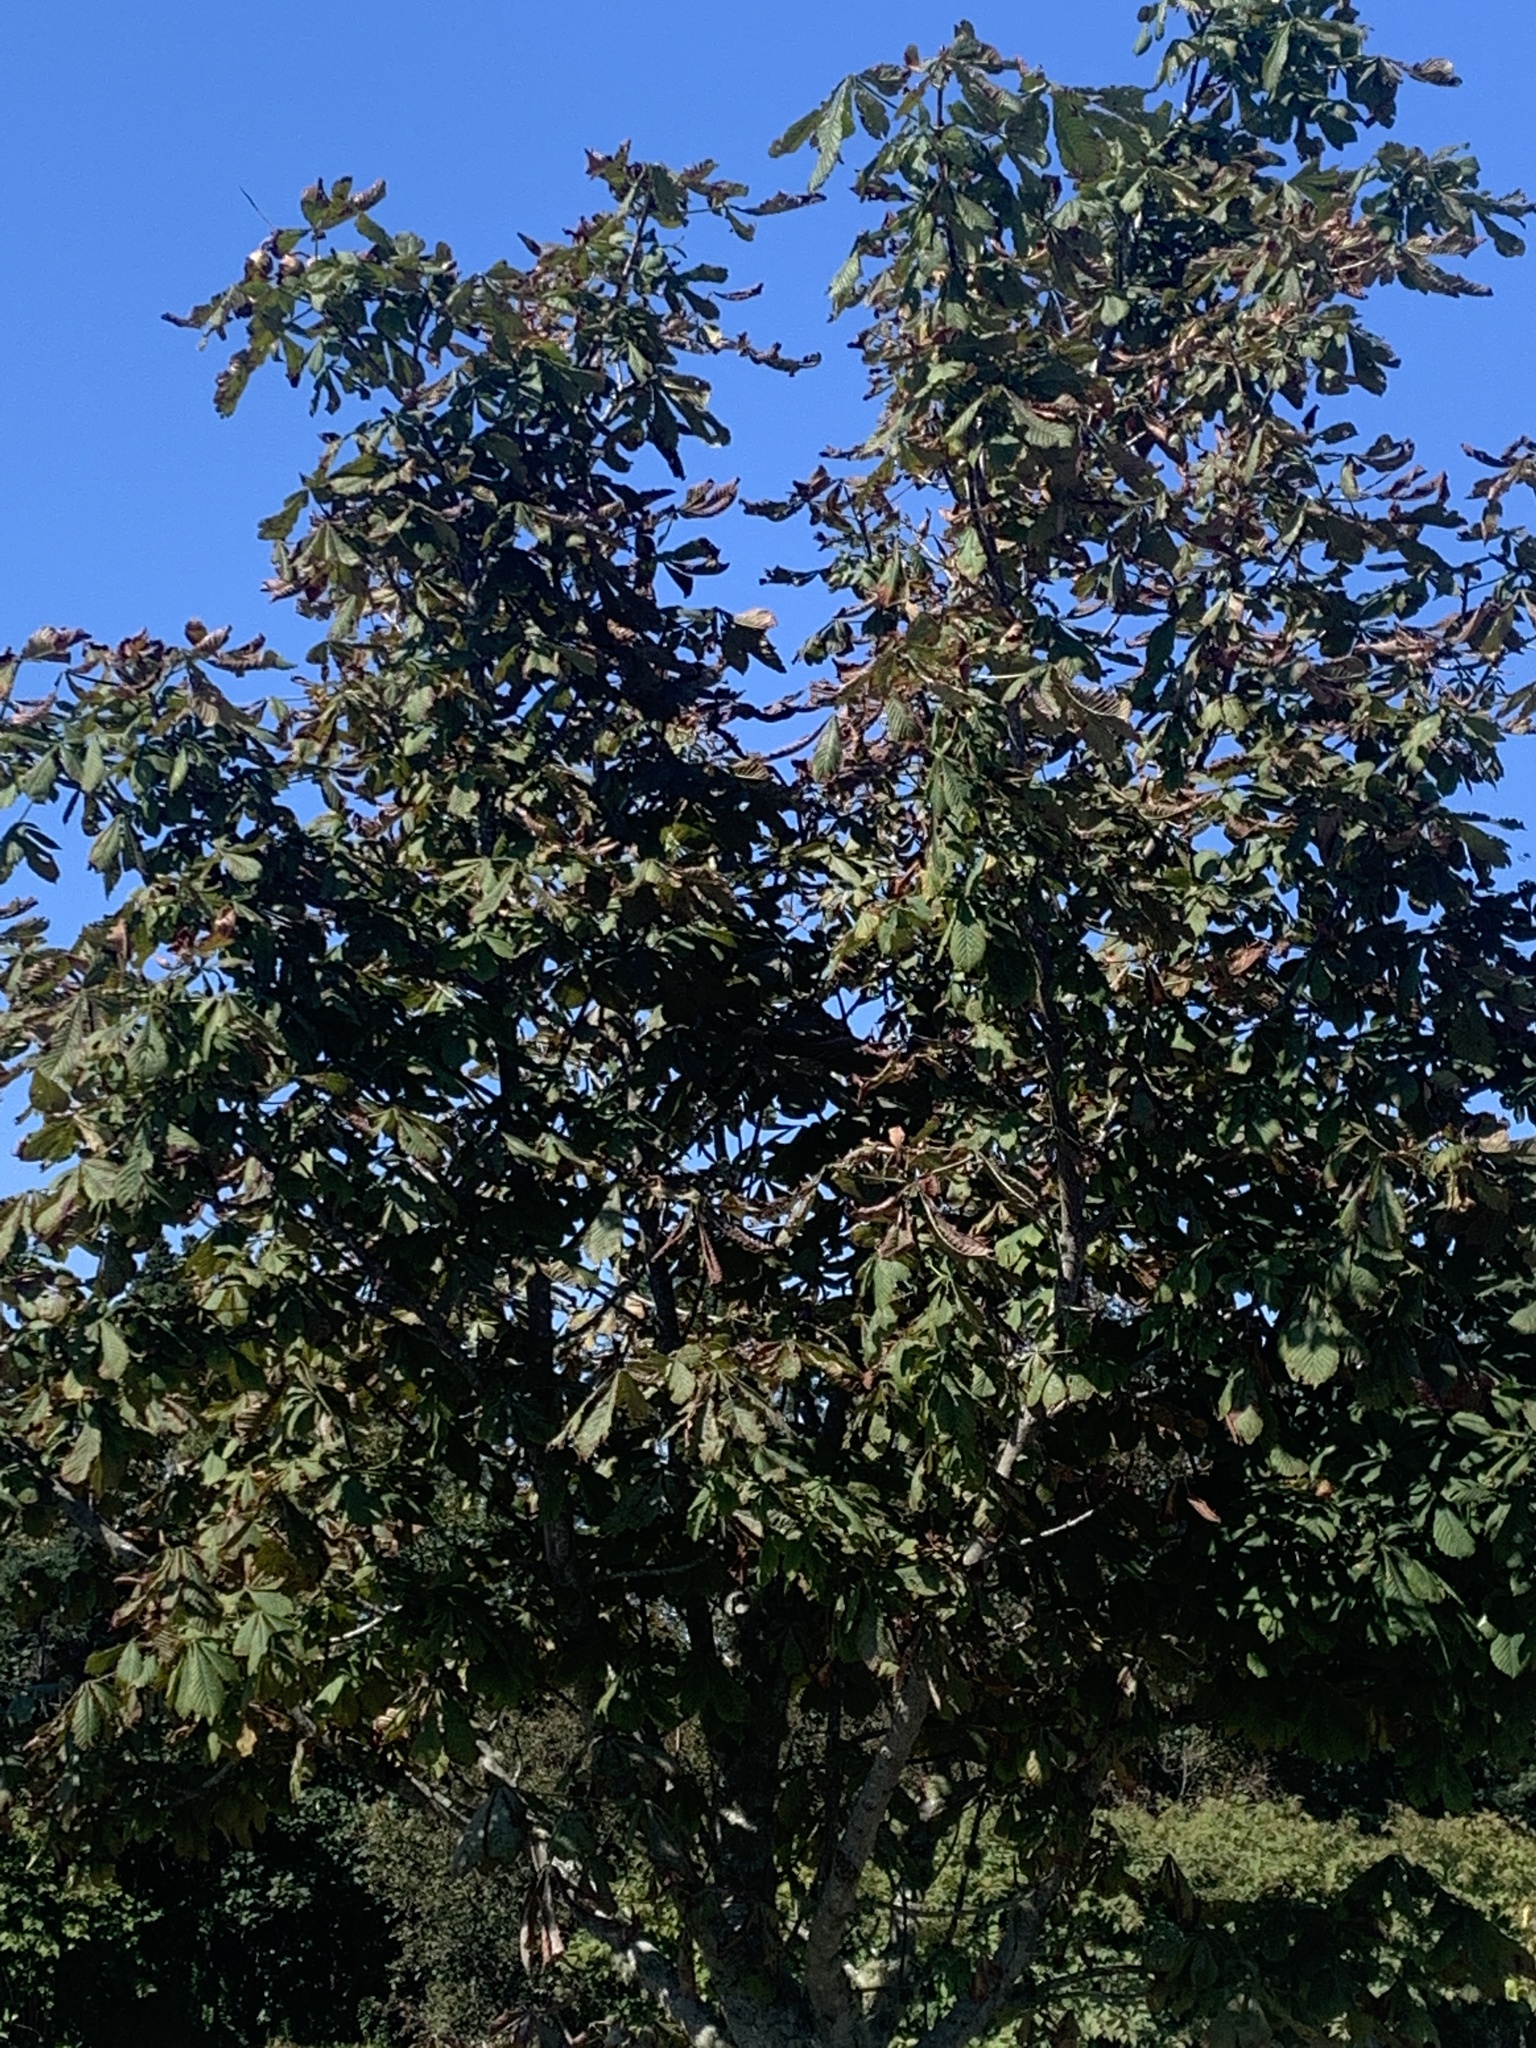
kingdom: Plantae
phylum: Tracheophyta
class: Magnoliopsida
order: Sapindales
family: Sapindaceae
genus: Aesculus
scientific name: Aesculus hippocastanum
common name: Horse-chestnut
